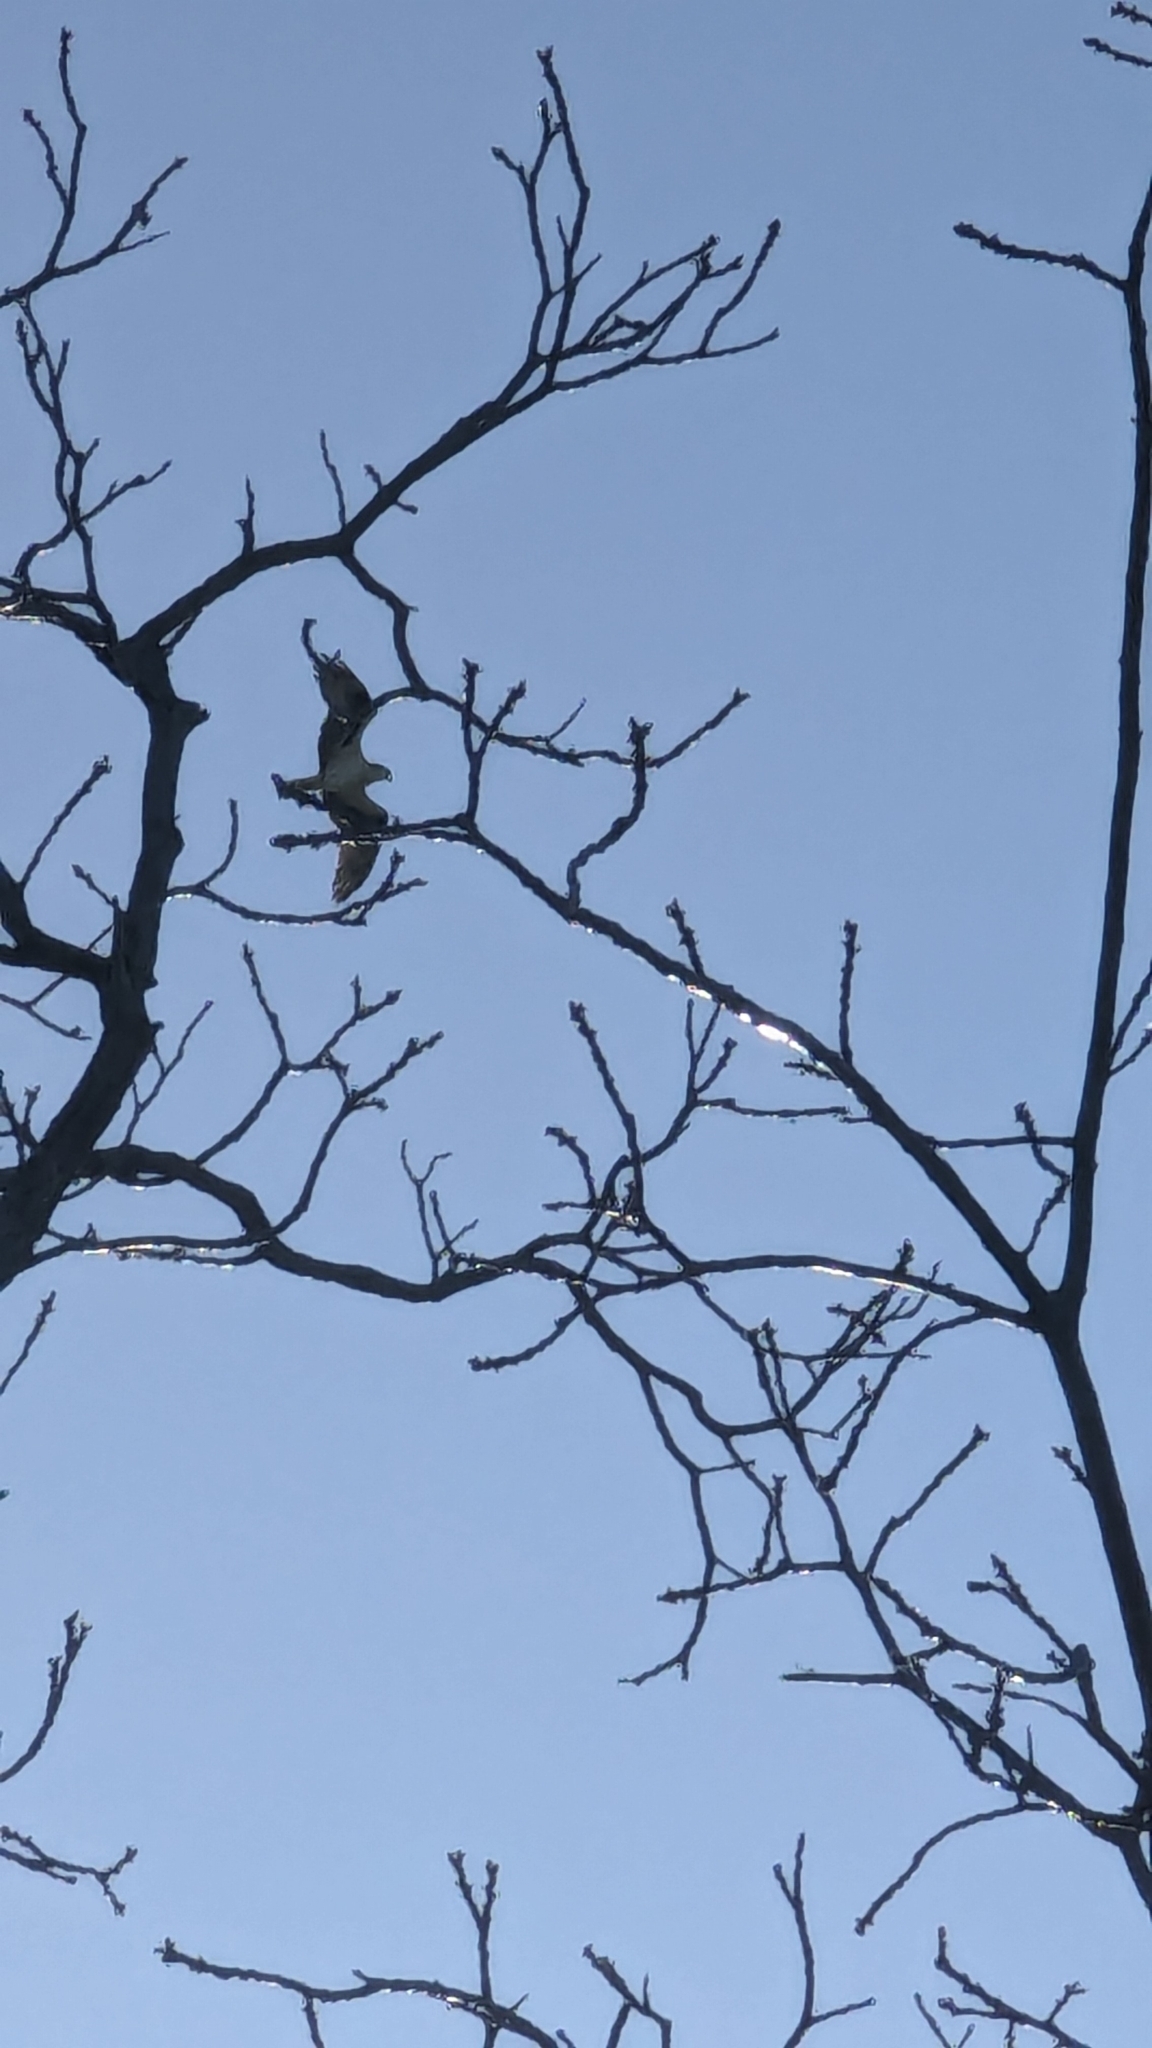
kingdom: Animalia
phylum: Chordata
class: Aves
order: Accipitriformes
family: Pandionidae
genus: Pandion
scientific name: Pandion haliaetus
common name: Osprey
